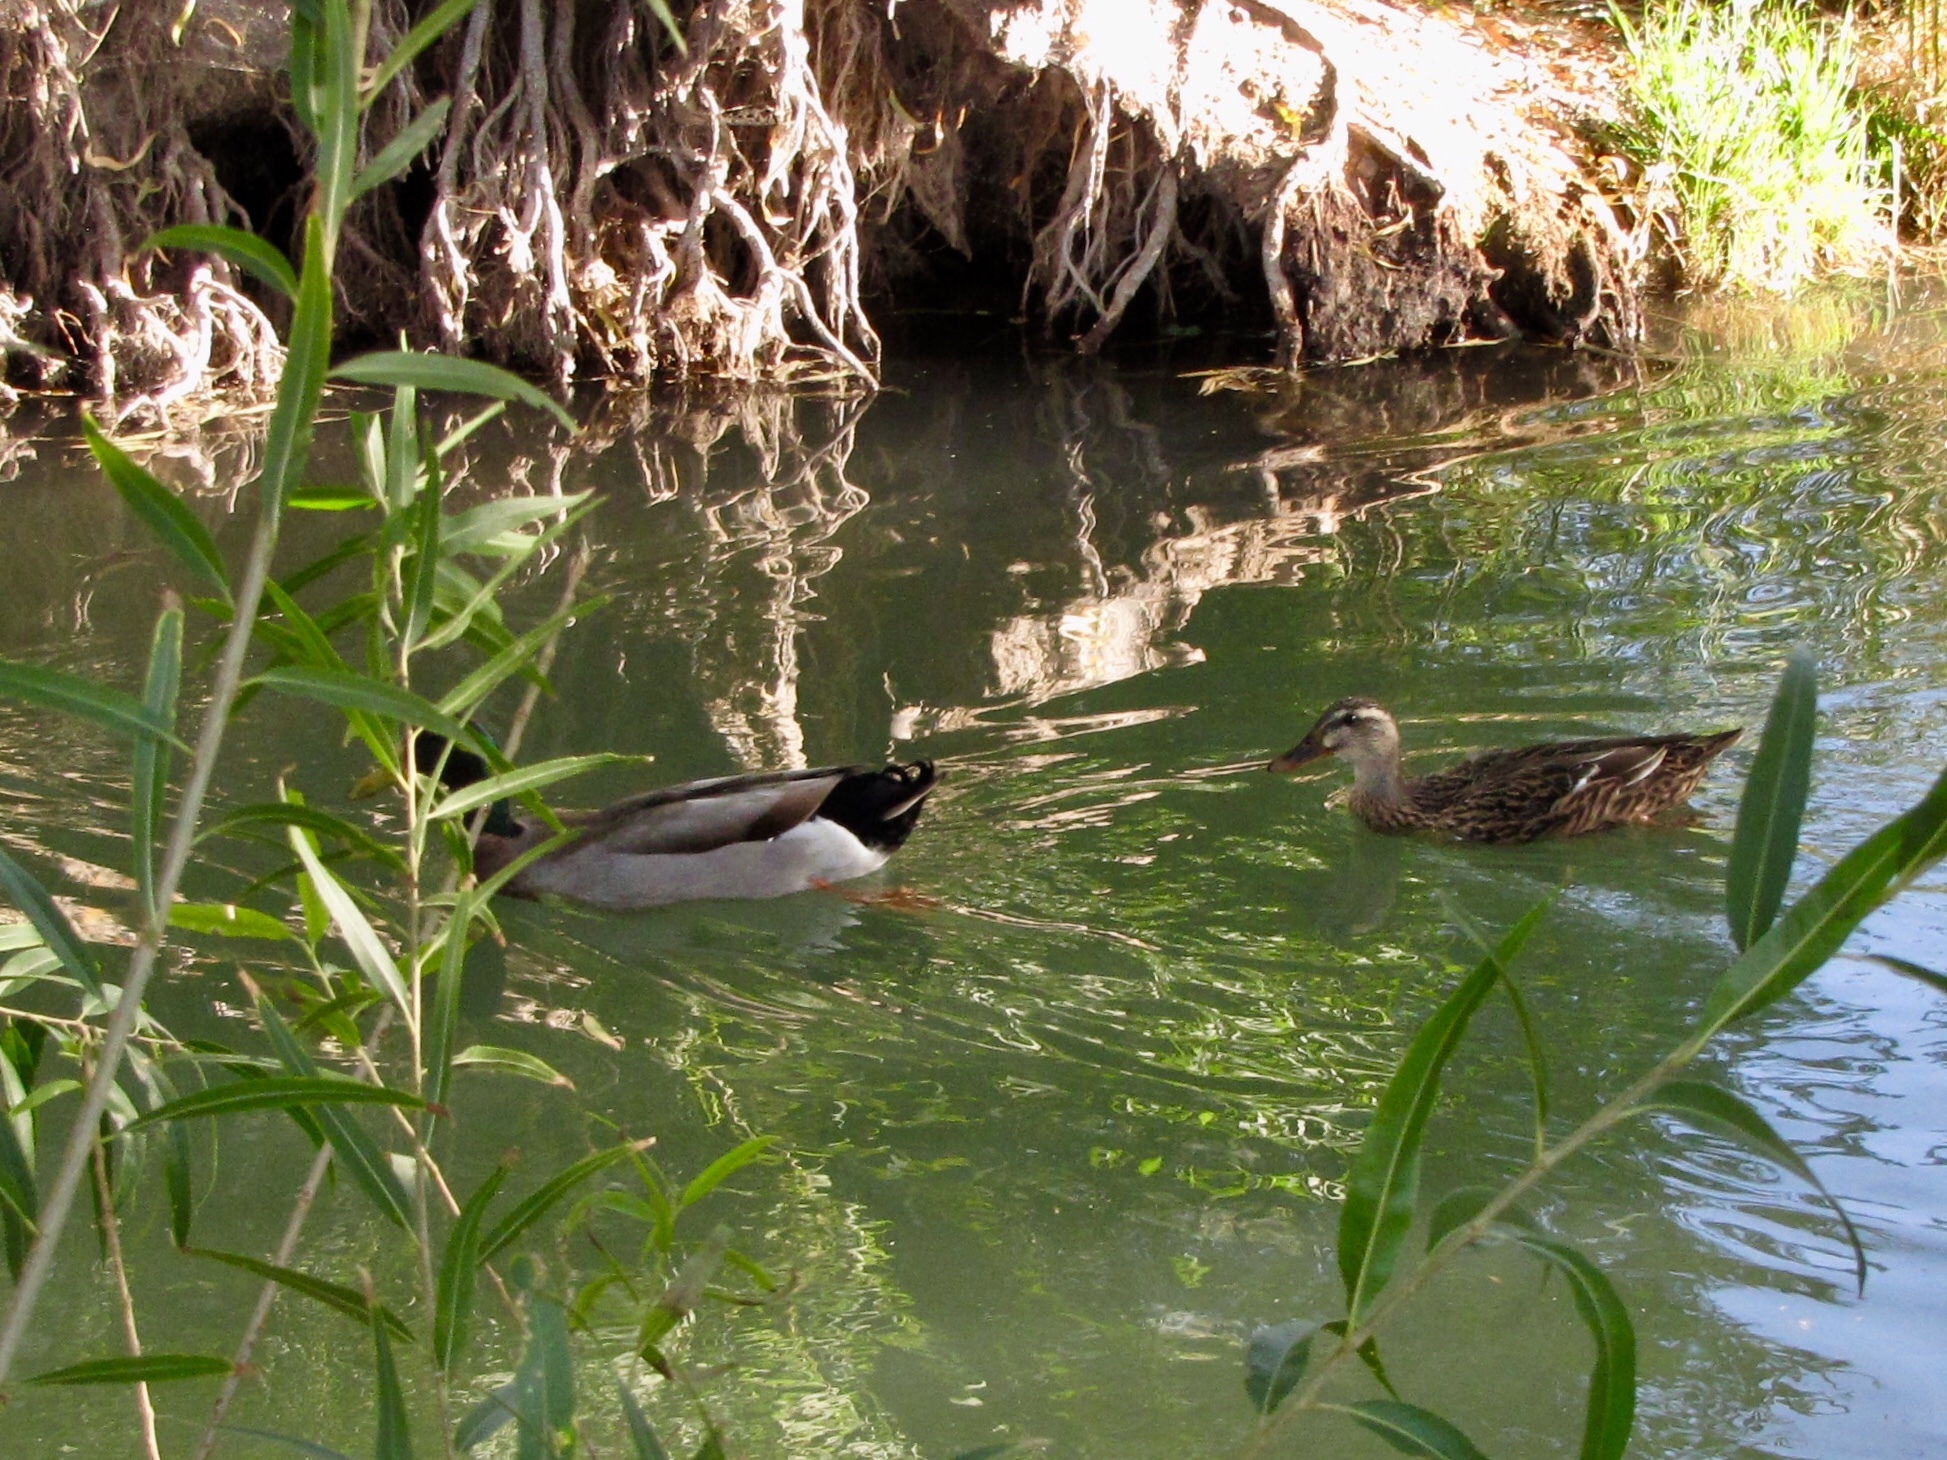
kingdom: Animalia
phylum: Chordata
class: Aves
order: Anseriformes
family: Anatidae
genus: Anas
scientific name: Anas platyrhynchos
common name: Mallard
